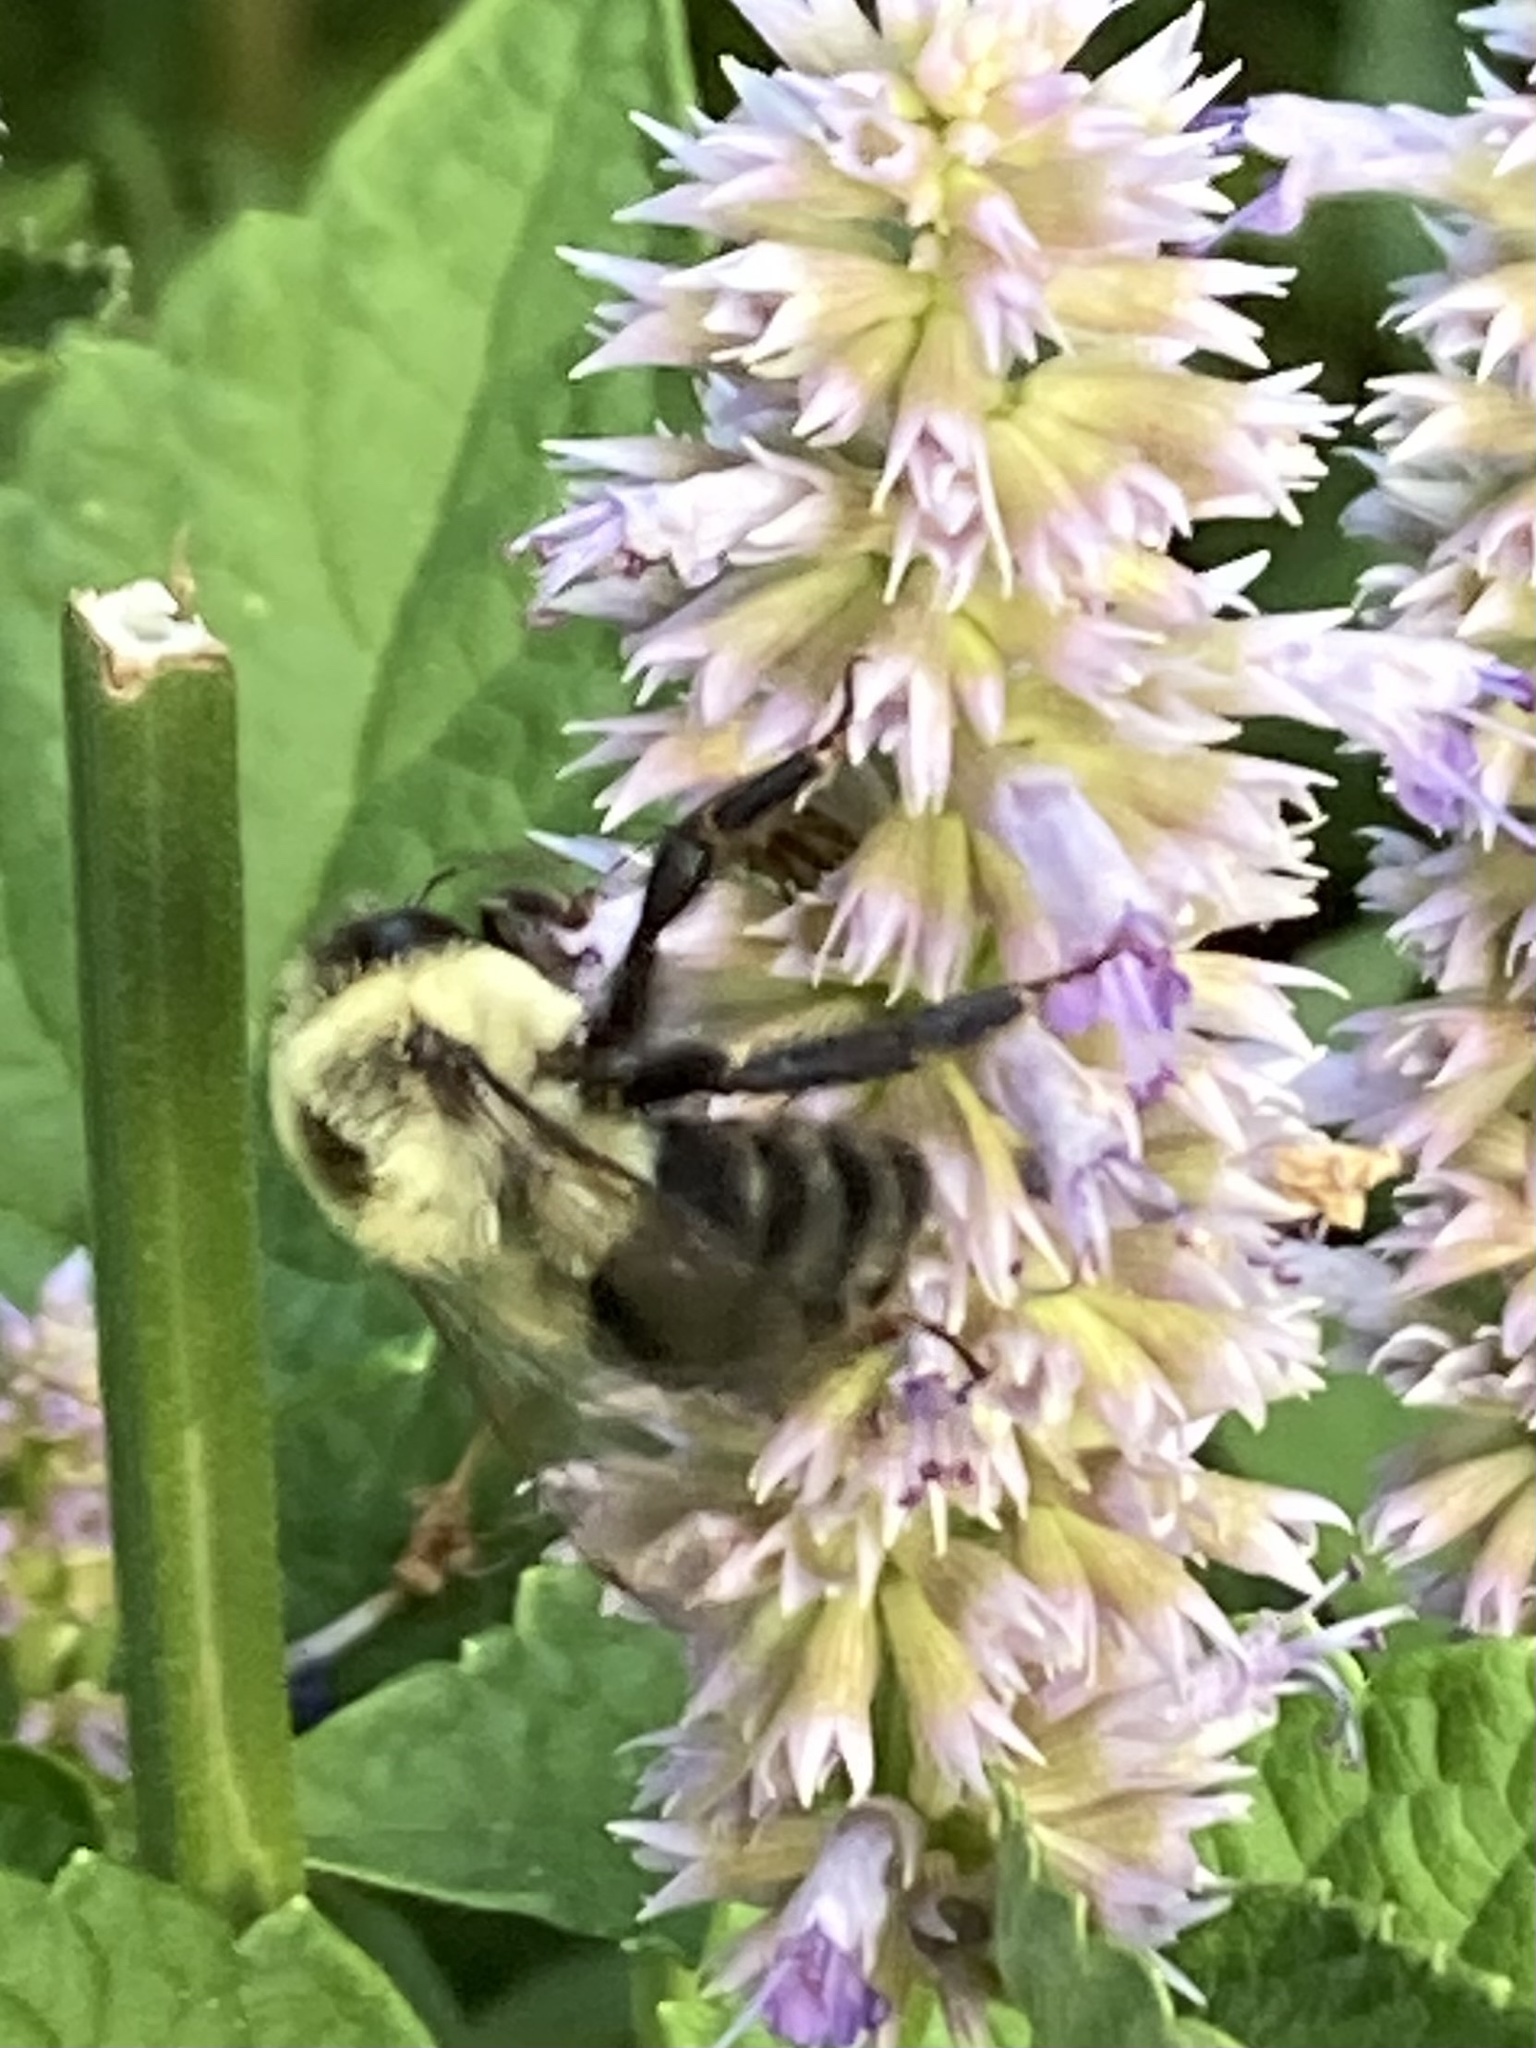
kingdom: Animalia
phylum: Arthropoda
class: Insecta
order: Hymenoptera
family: Apidae
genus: Bombus
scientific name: Bombus impatiens
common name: Common eastern bumble bee
